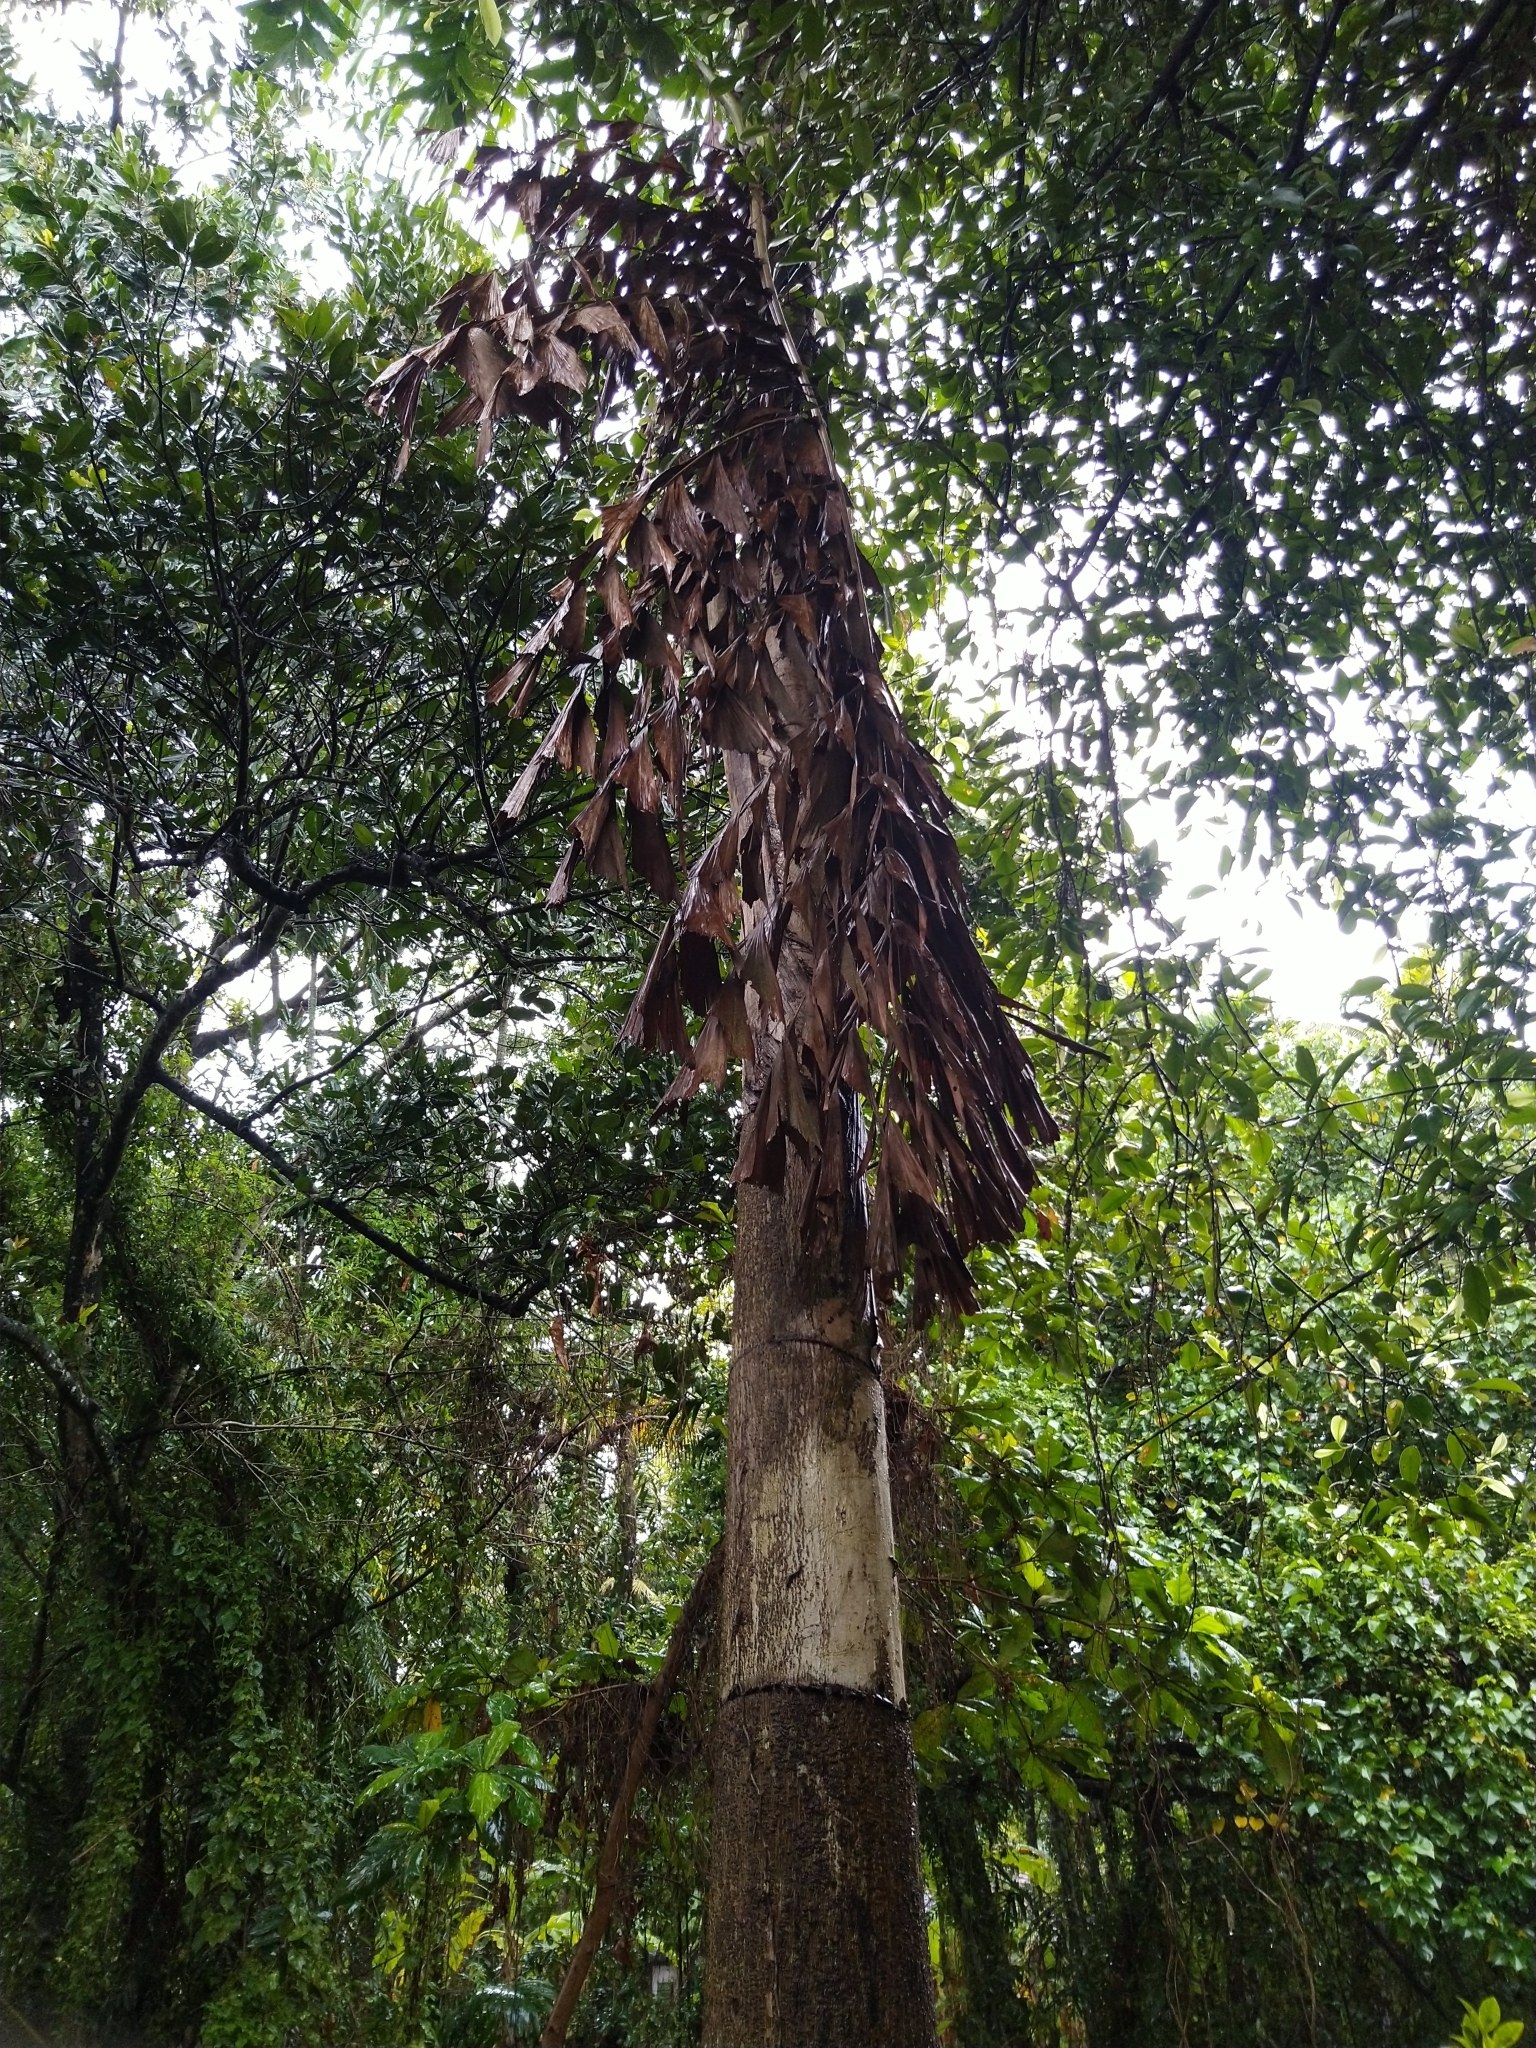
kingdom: Plantae
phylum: Tracheophyta
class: Liliopsida
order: Arecales
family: Arecaceae
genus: Caryota
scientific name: Caryota urens
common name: Jaggery palm
